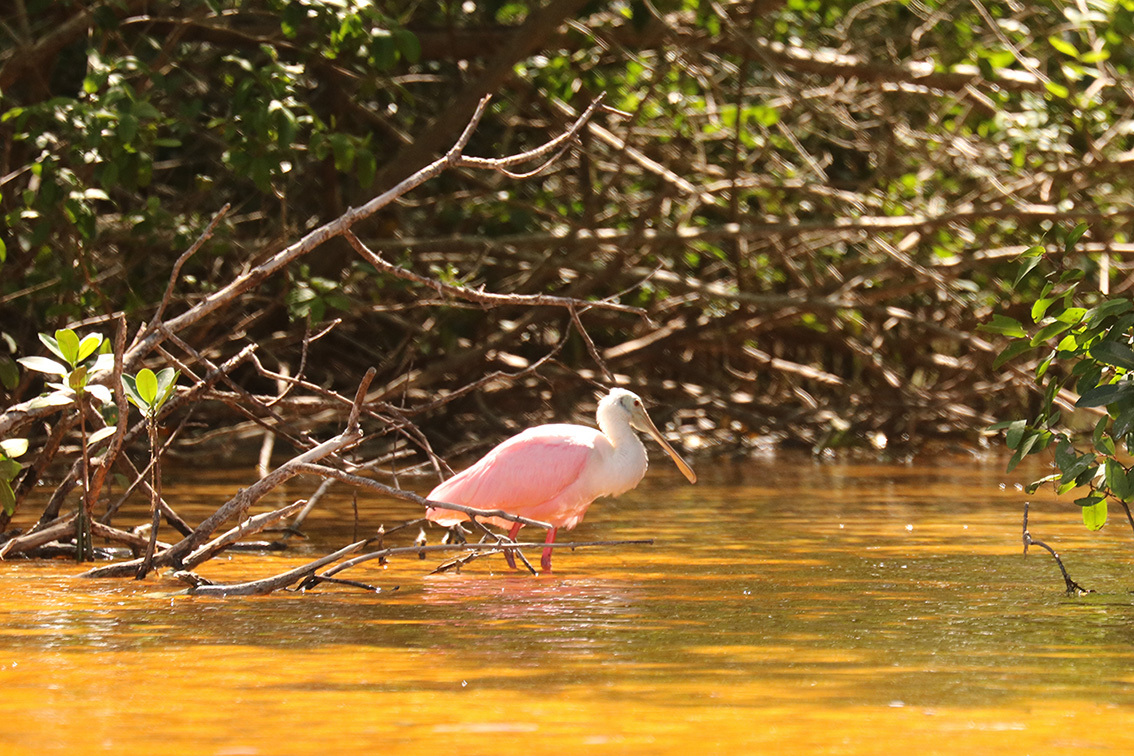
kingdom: Animalia
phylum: Chordata
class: Aves
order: Pelecaniformes
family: Threskiornithidae
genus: Platalea
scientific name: Platalea ajaja
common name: Roseate spoonbill
